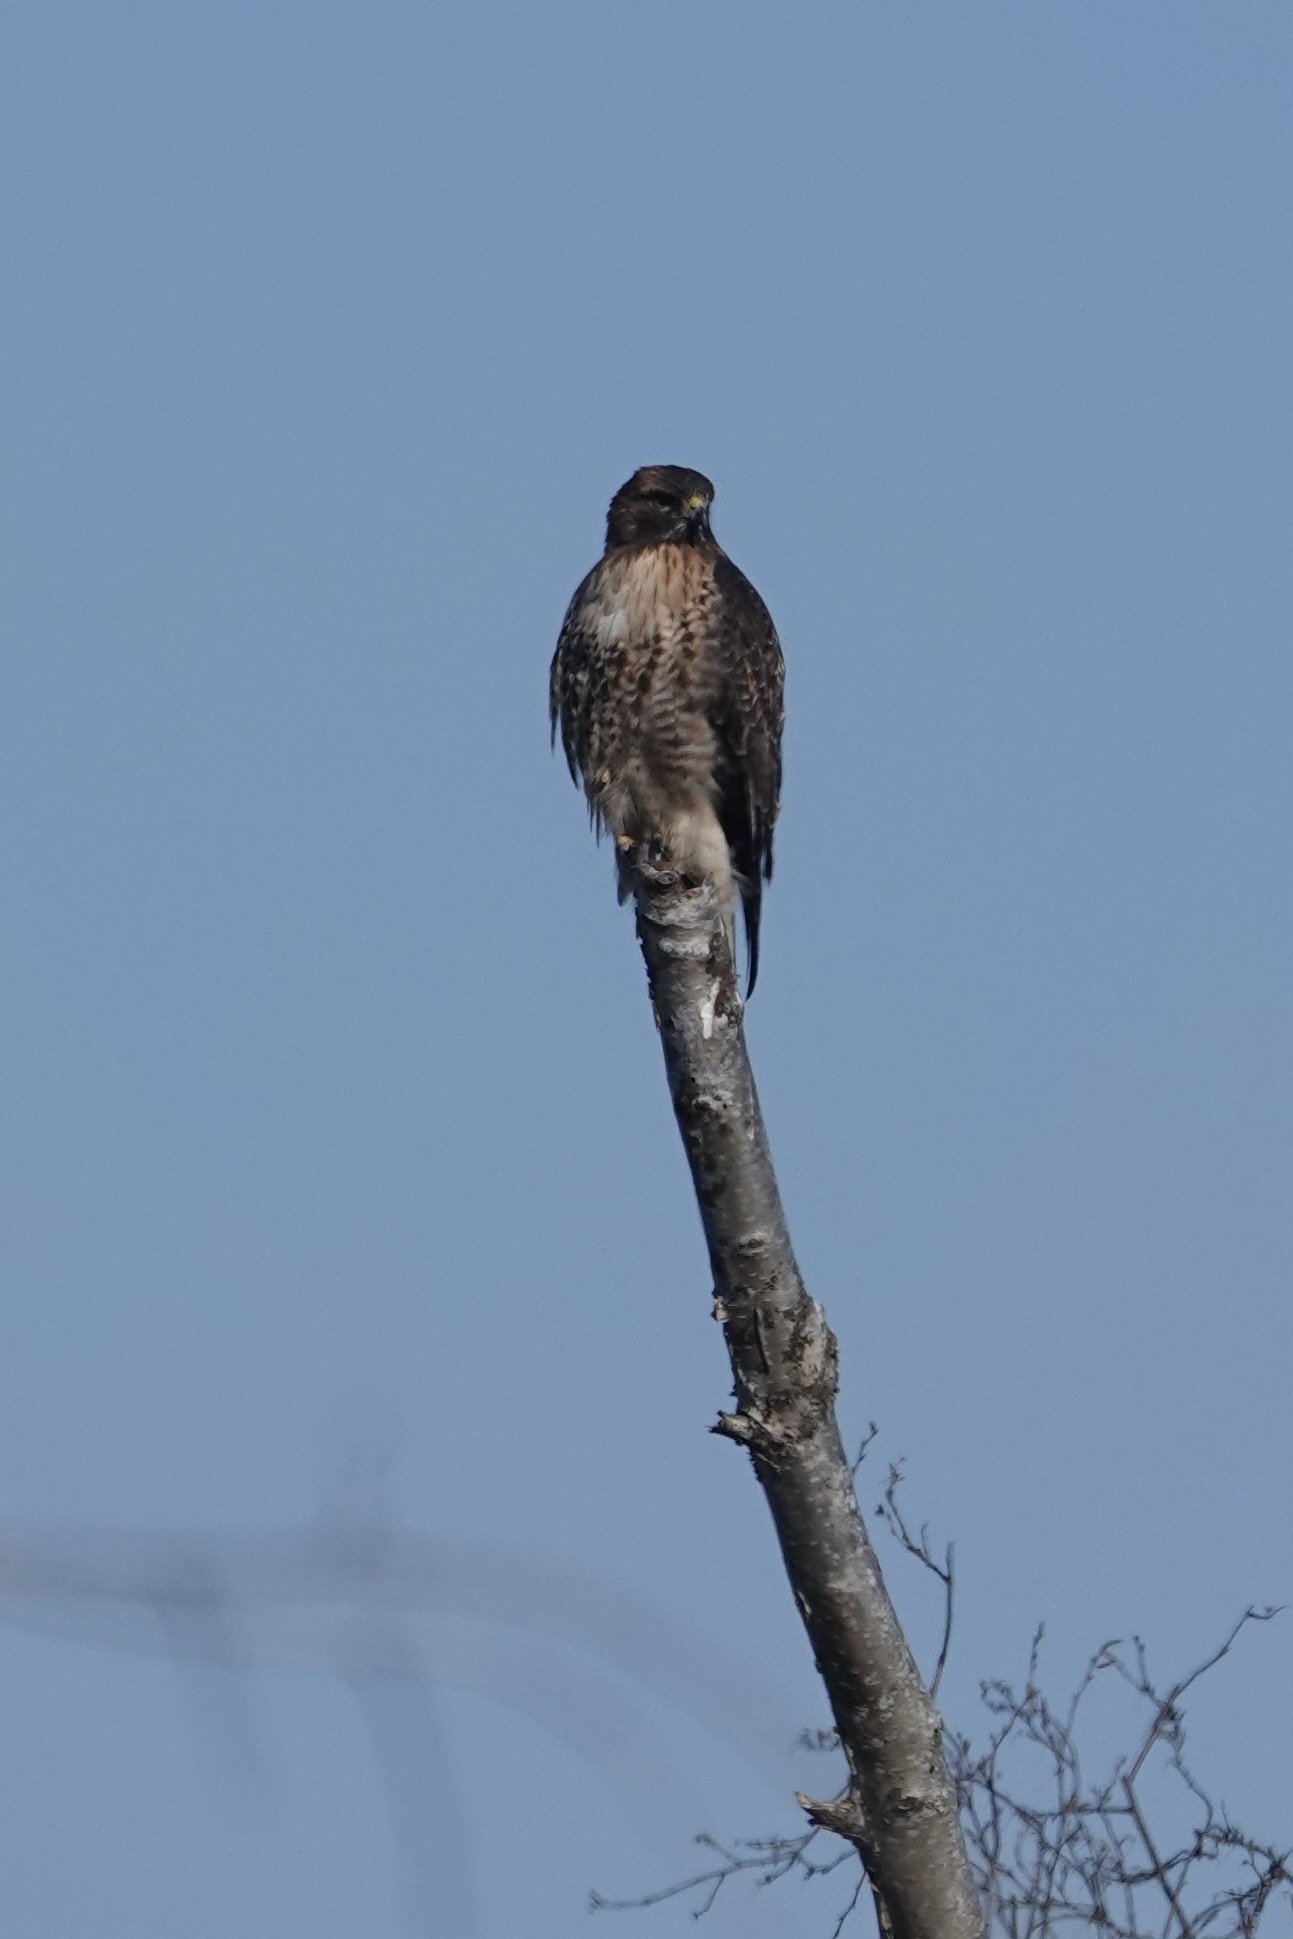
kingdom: Animalia
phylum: Chordata
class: Aves
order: Accipitriformes
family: Accipitridae
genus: Buteo
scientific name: Buteo jamaicensis
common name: Red-tailed hawk
